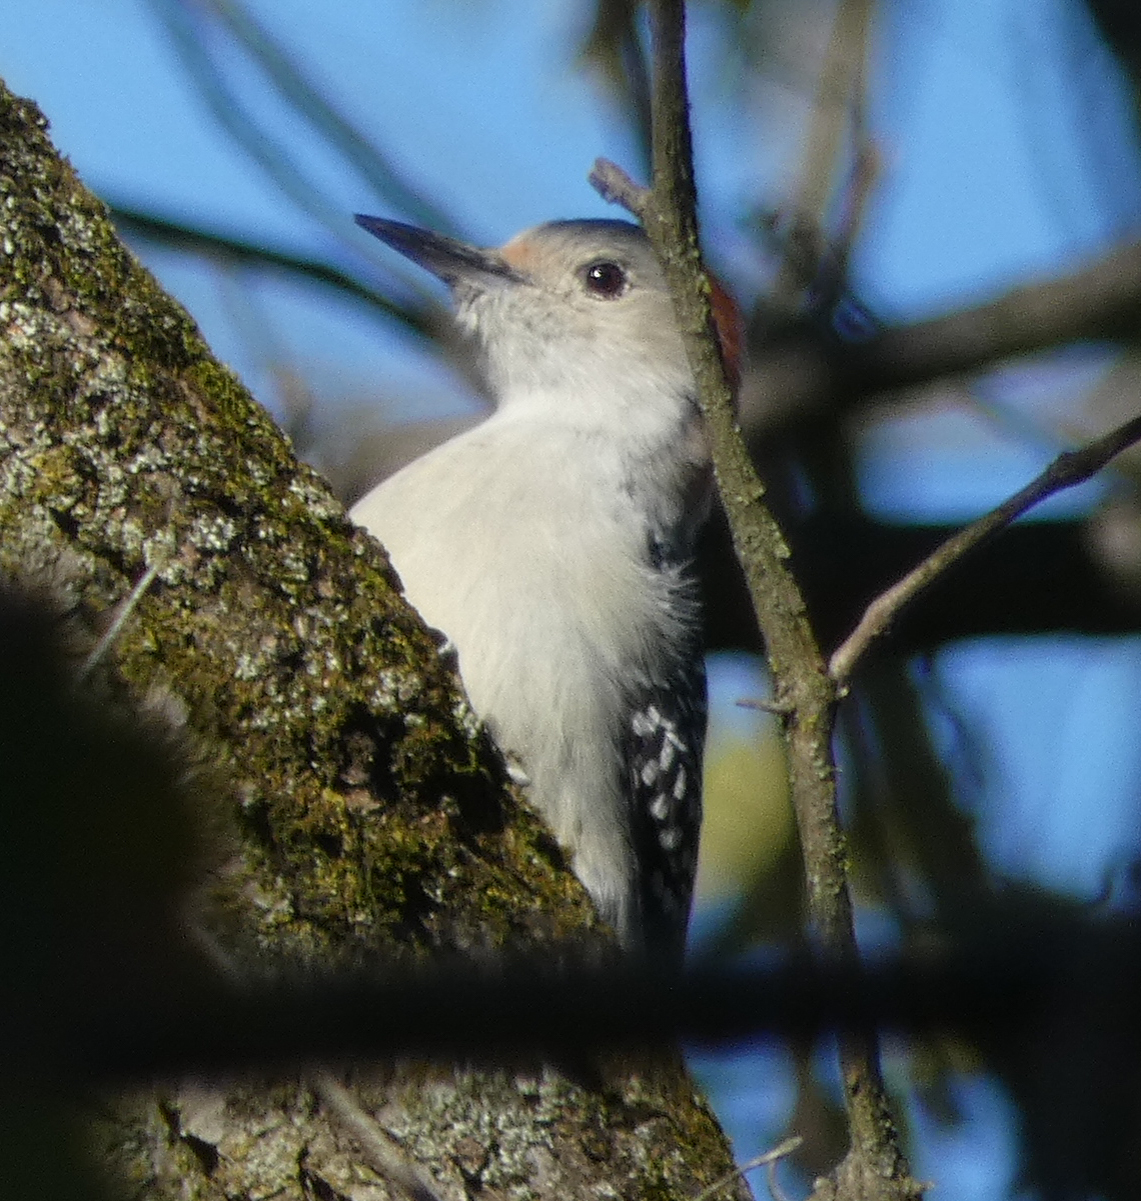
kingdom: Animalia
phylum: Chordata
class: Aves
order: Piciformes
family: Picidae
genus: Melanerpes
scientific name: Melanerpes carolinus
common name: Red-bellied woodpecker
